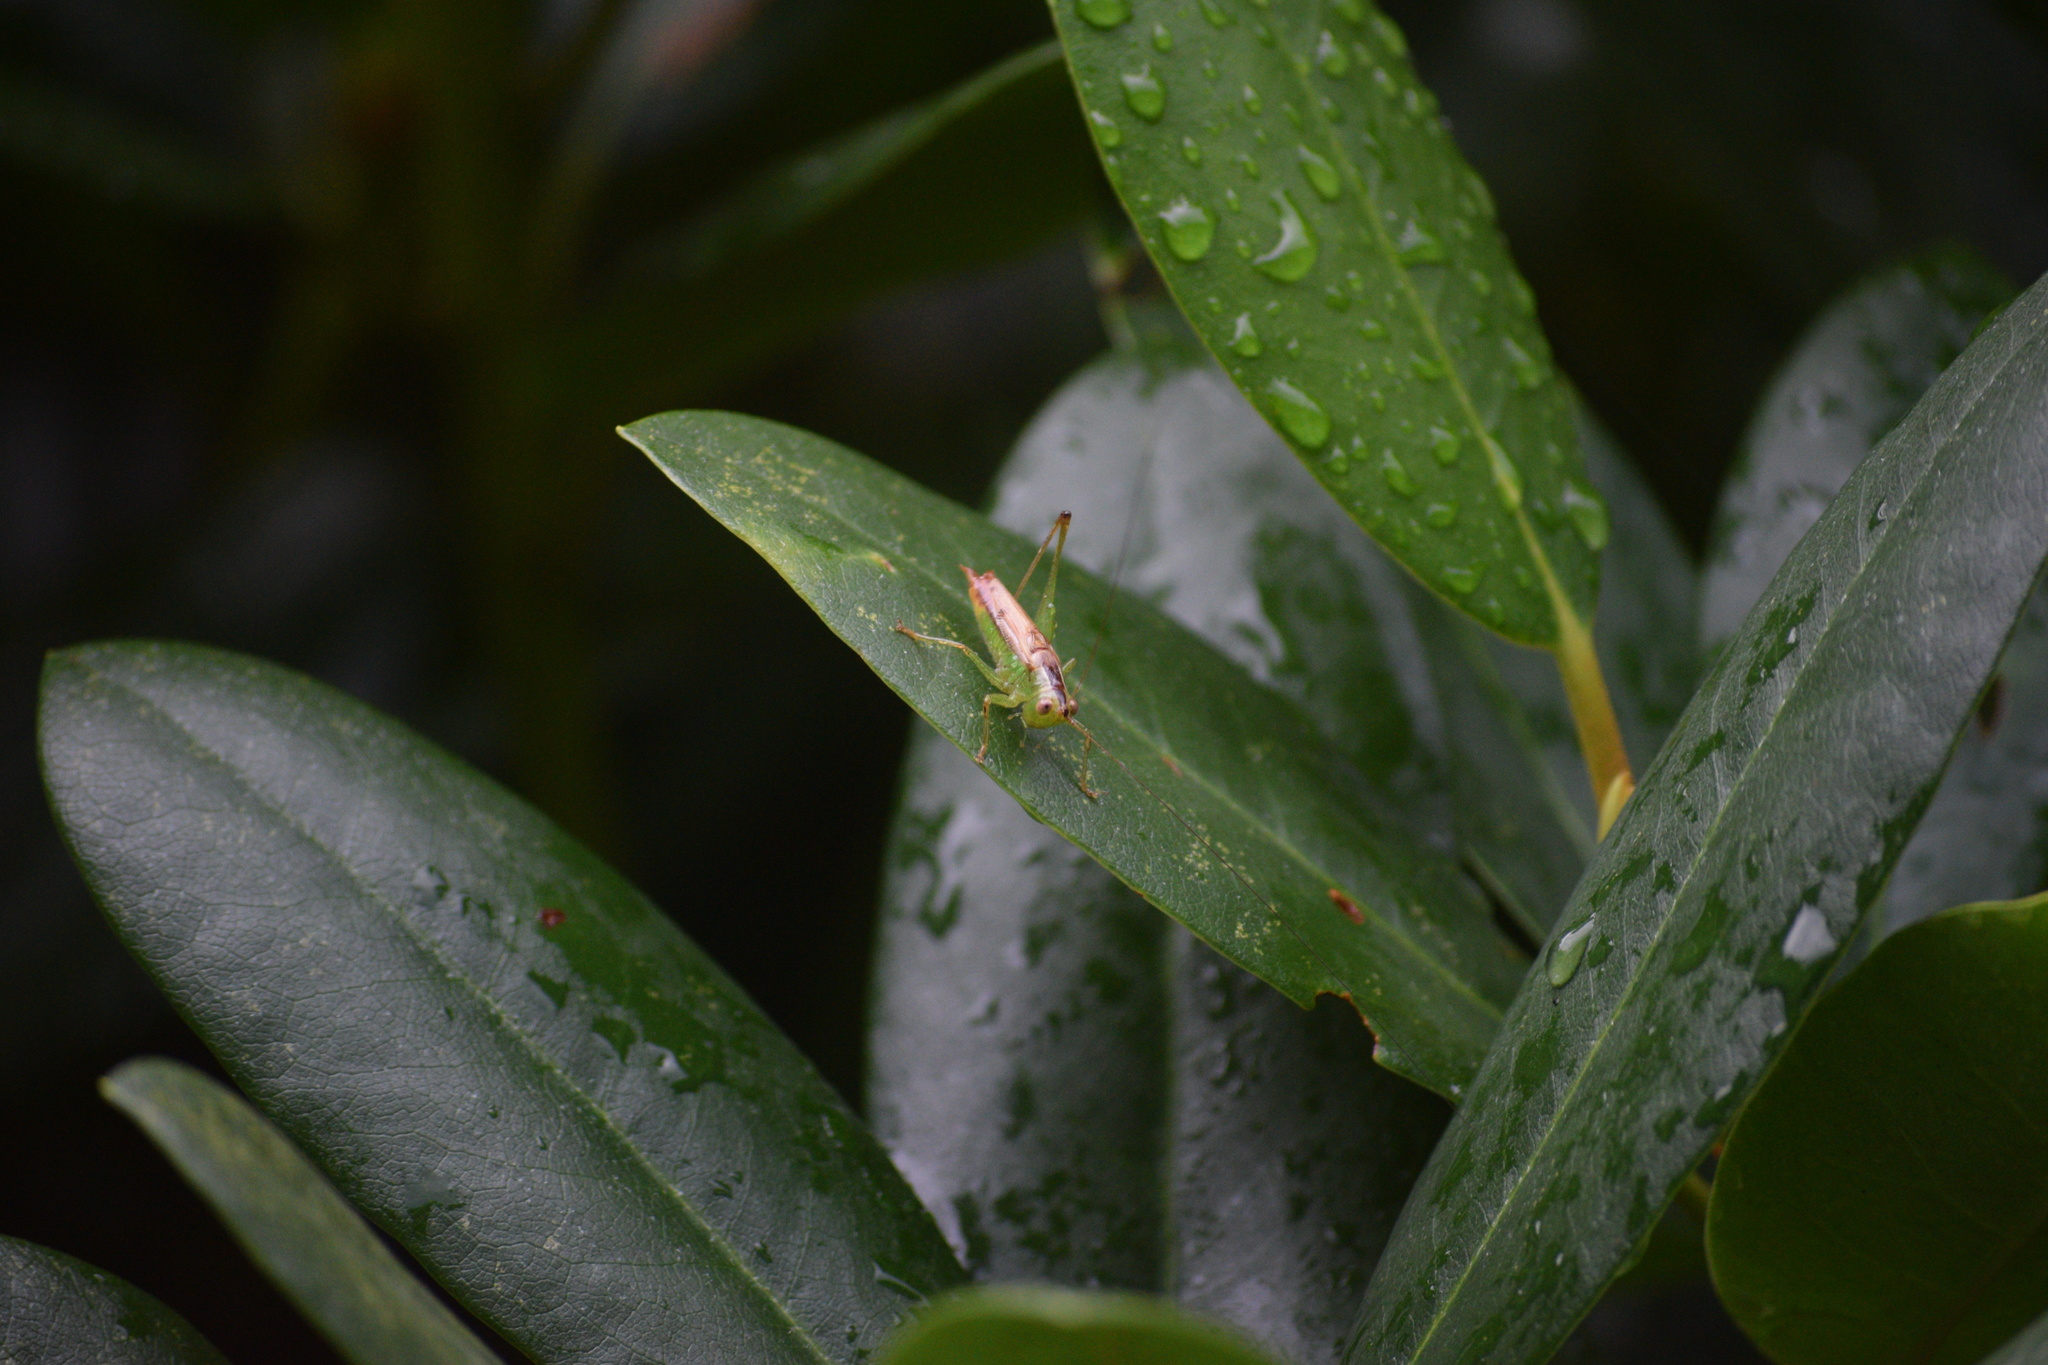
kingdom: Animalia
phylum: Arthropoda
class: Insecta
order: Orthoptera
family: Tettigoniidae
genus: Conocephalus
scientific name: Conocephalus brevipennis
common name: Short-winged meadow katydid
